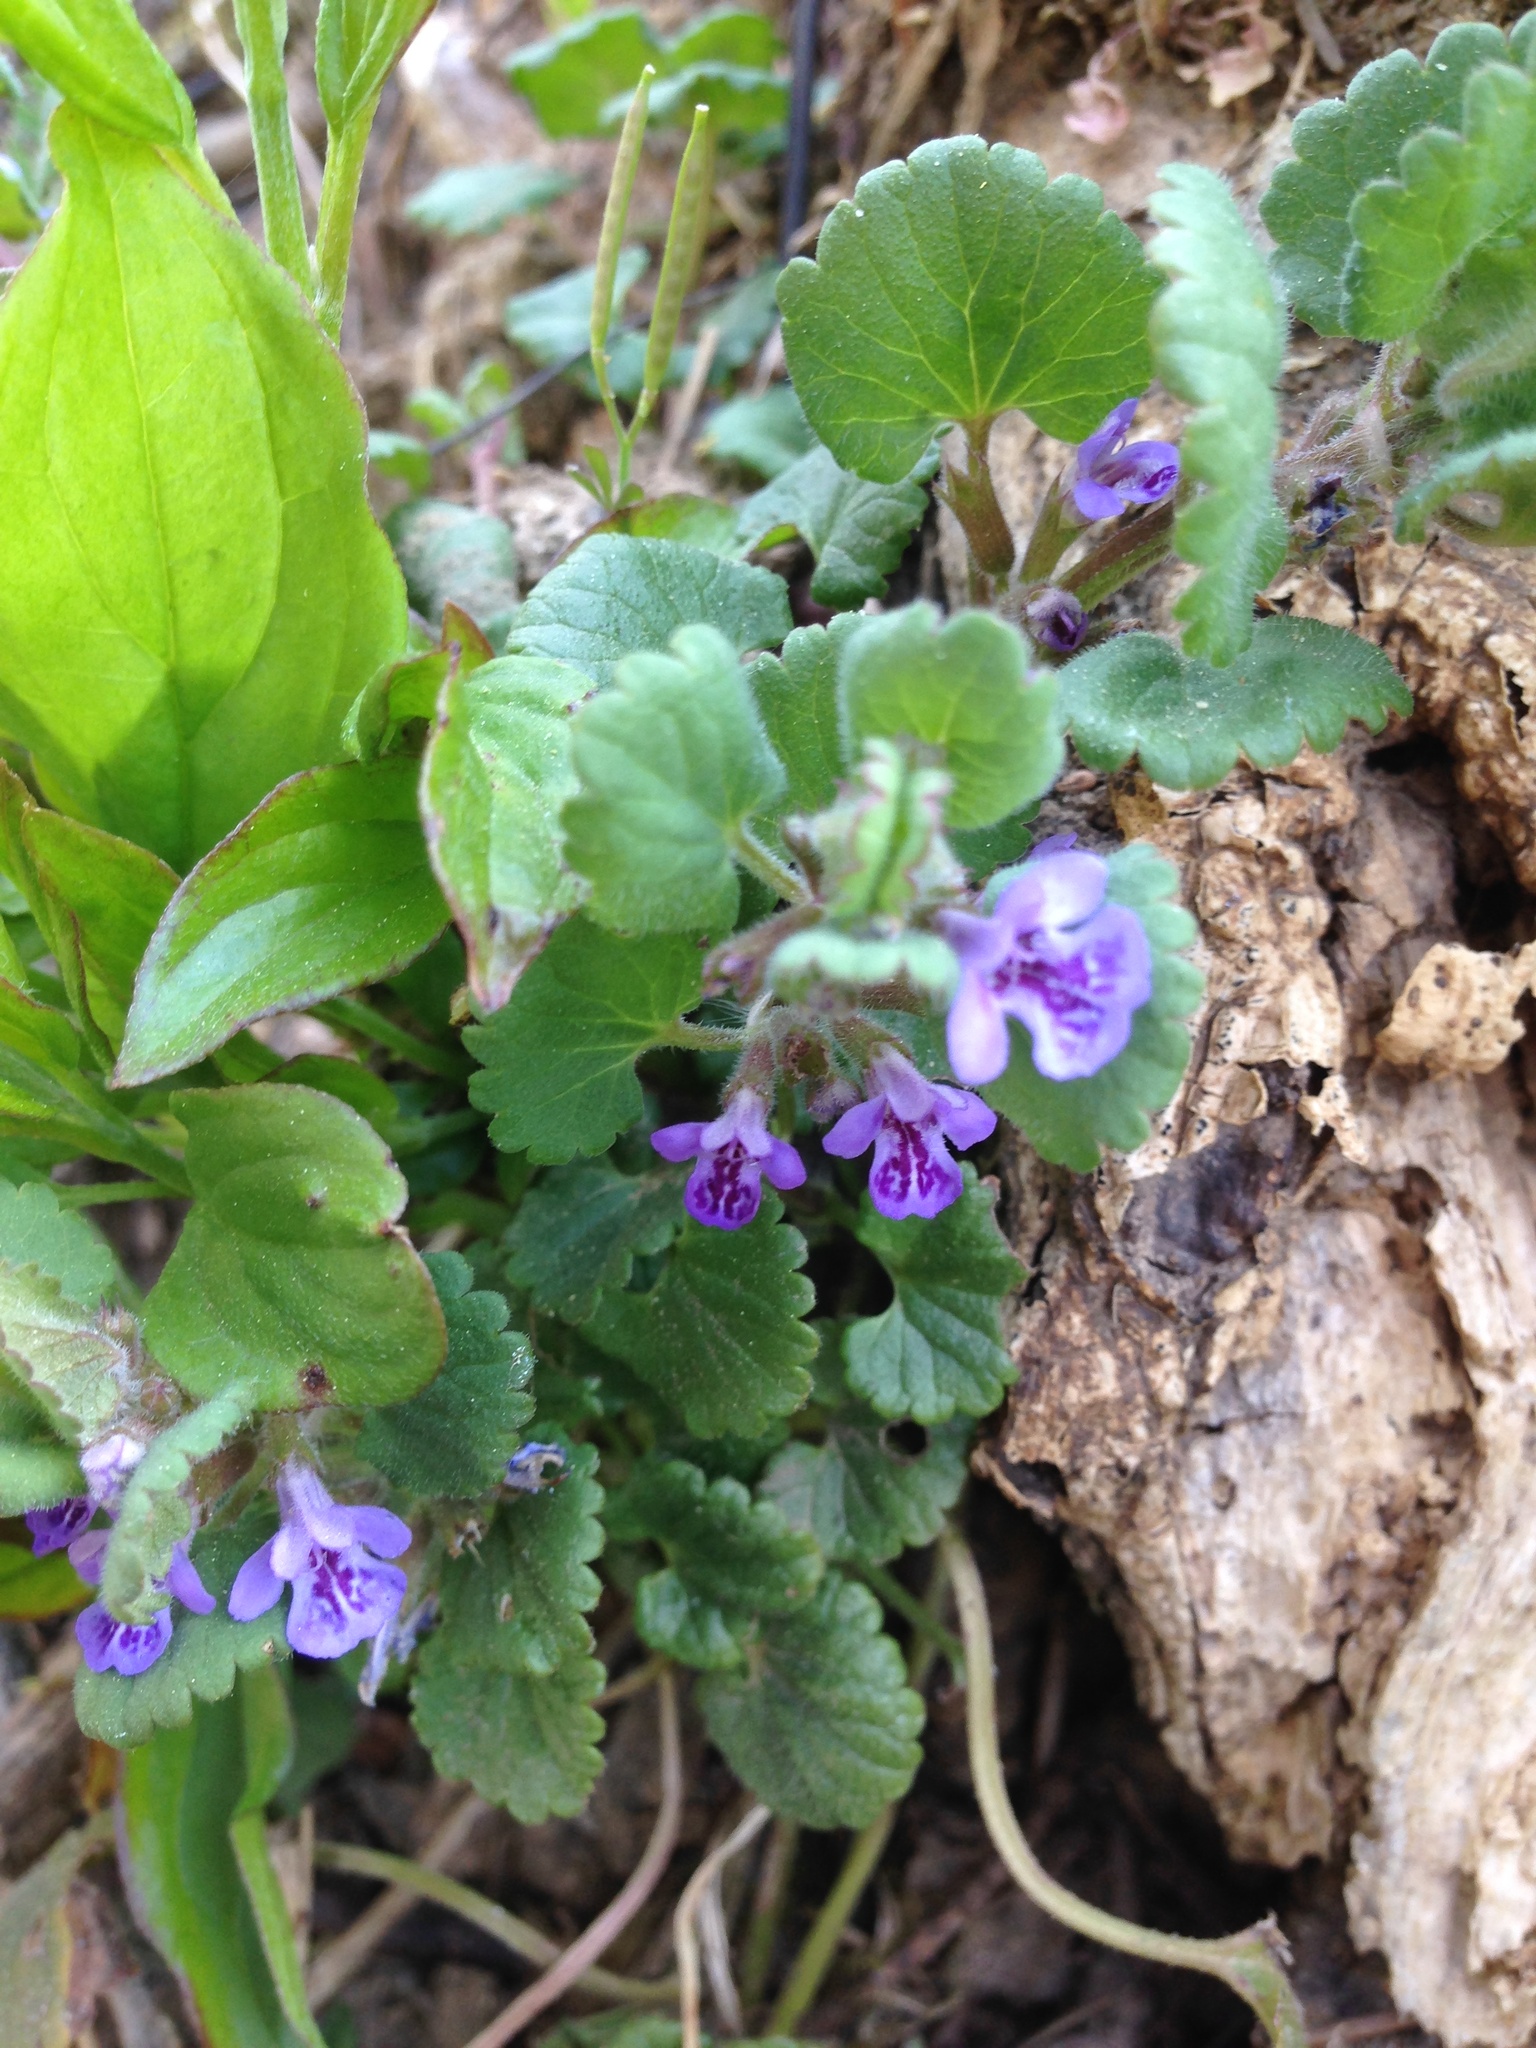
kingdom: Plantae
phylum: Tracheophyta
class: Magnoliopsida
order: Lamiales
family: Lamiaceae
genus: Glechoma
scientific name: Glechoma hederacea
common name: Ground ivy
